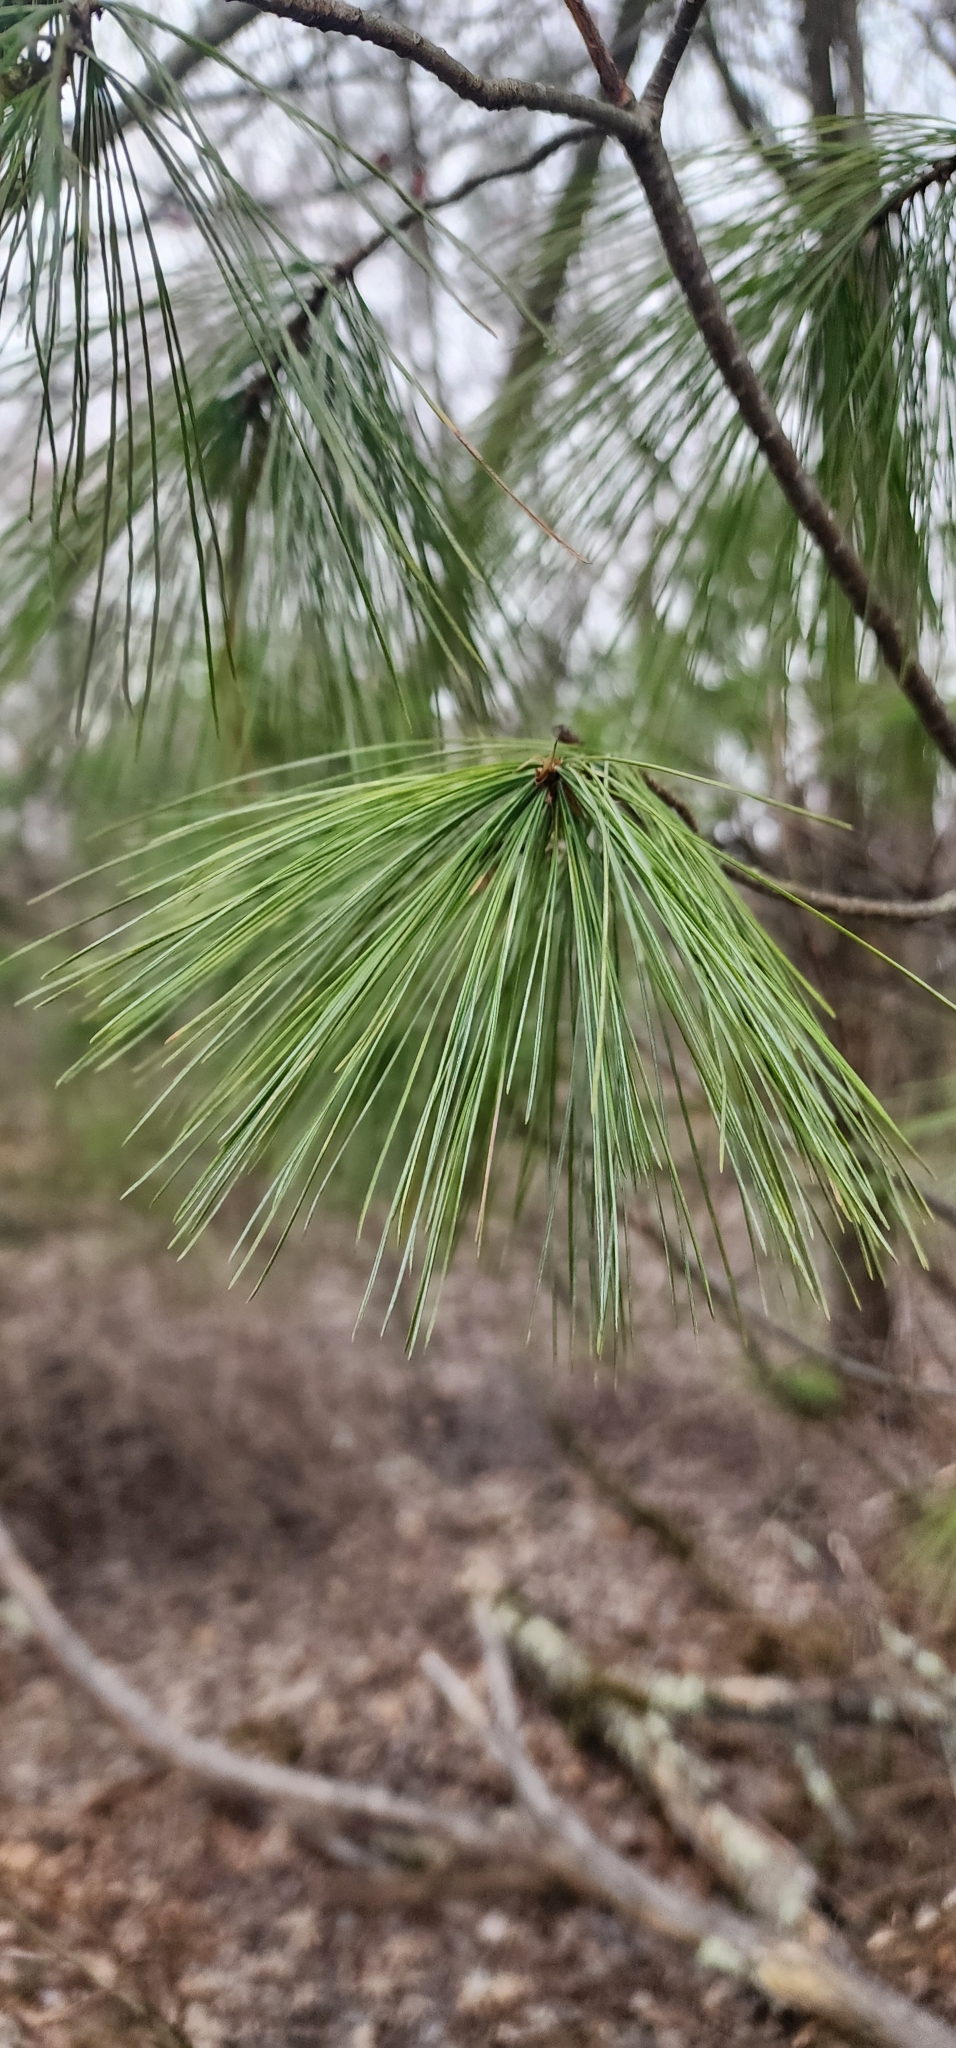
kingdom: Plantae
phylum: Tracheophyta
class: Pinopsida
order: Pinales
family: Pinaceae
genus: Pinus
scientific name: Pinus strobus
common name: Weymouth pine
